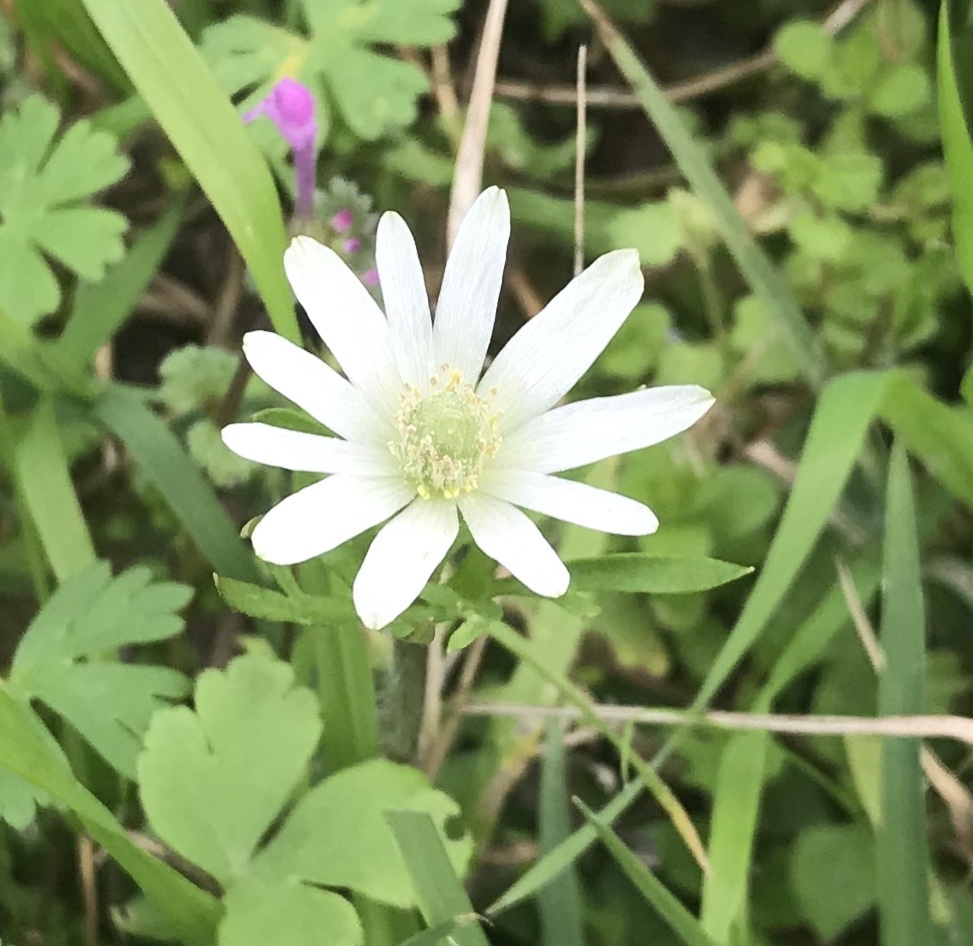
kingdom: Plantae
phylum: Tracheophyta
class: Magnoliopsida
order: Ranunculales
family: Ranunculaceae
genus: Anemone
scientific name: Anemone berlandieri
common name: Ten-petal anemone
